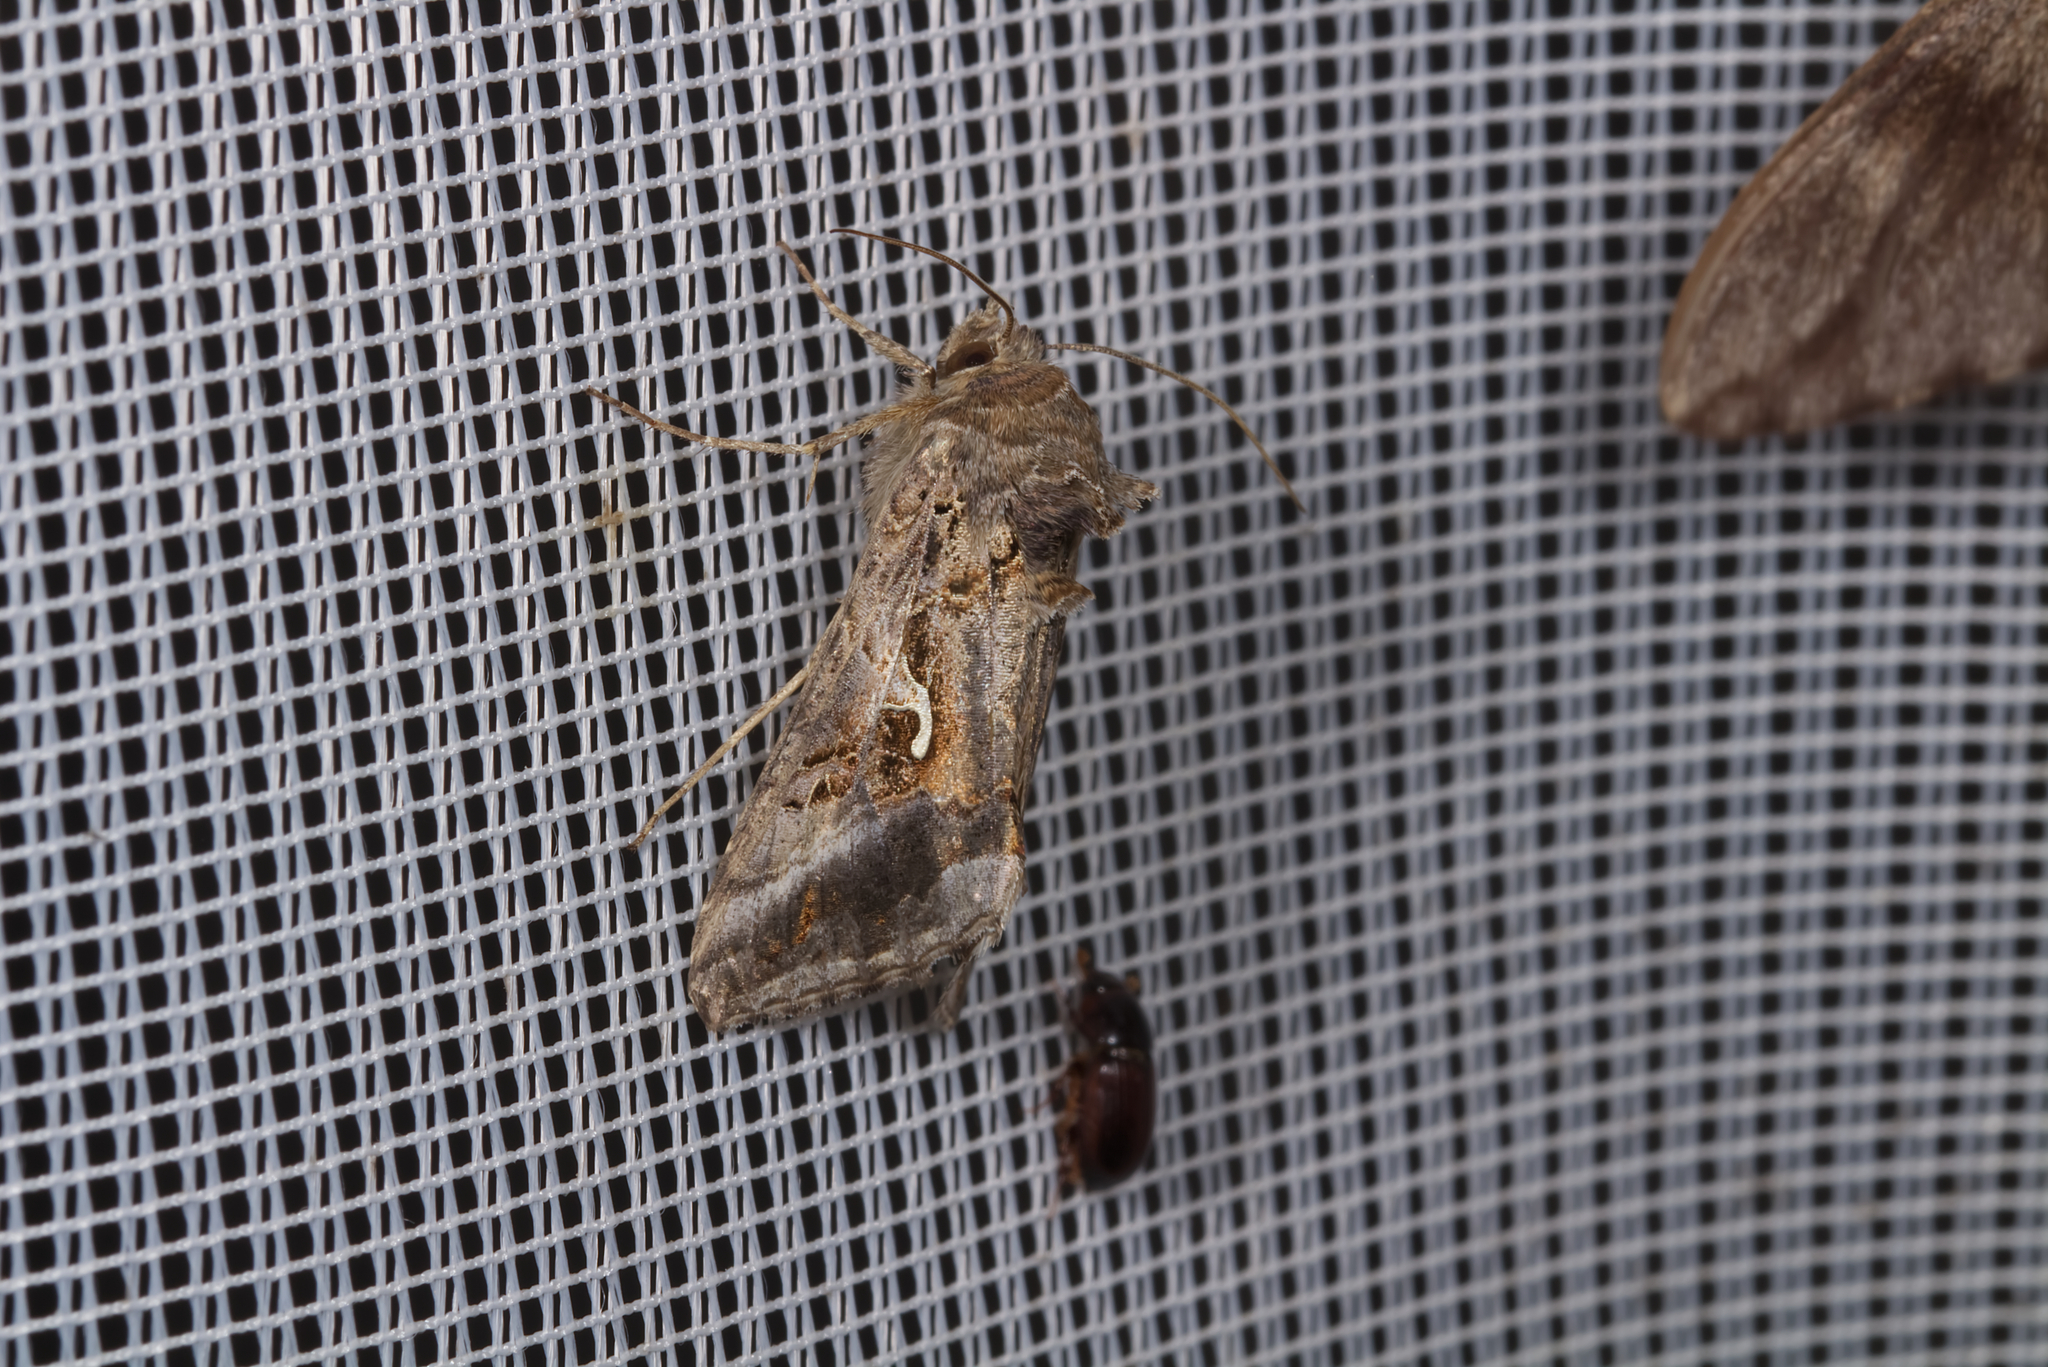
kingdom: Animalia
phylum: Arthropoda
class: Insecta
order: Lepidoptera
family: Noctuidae
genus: Autographa
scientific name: Autographa gamma
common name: Silver y
